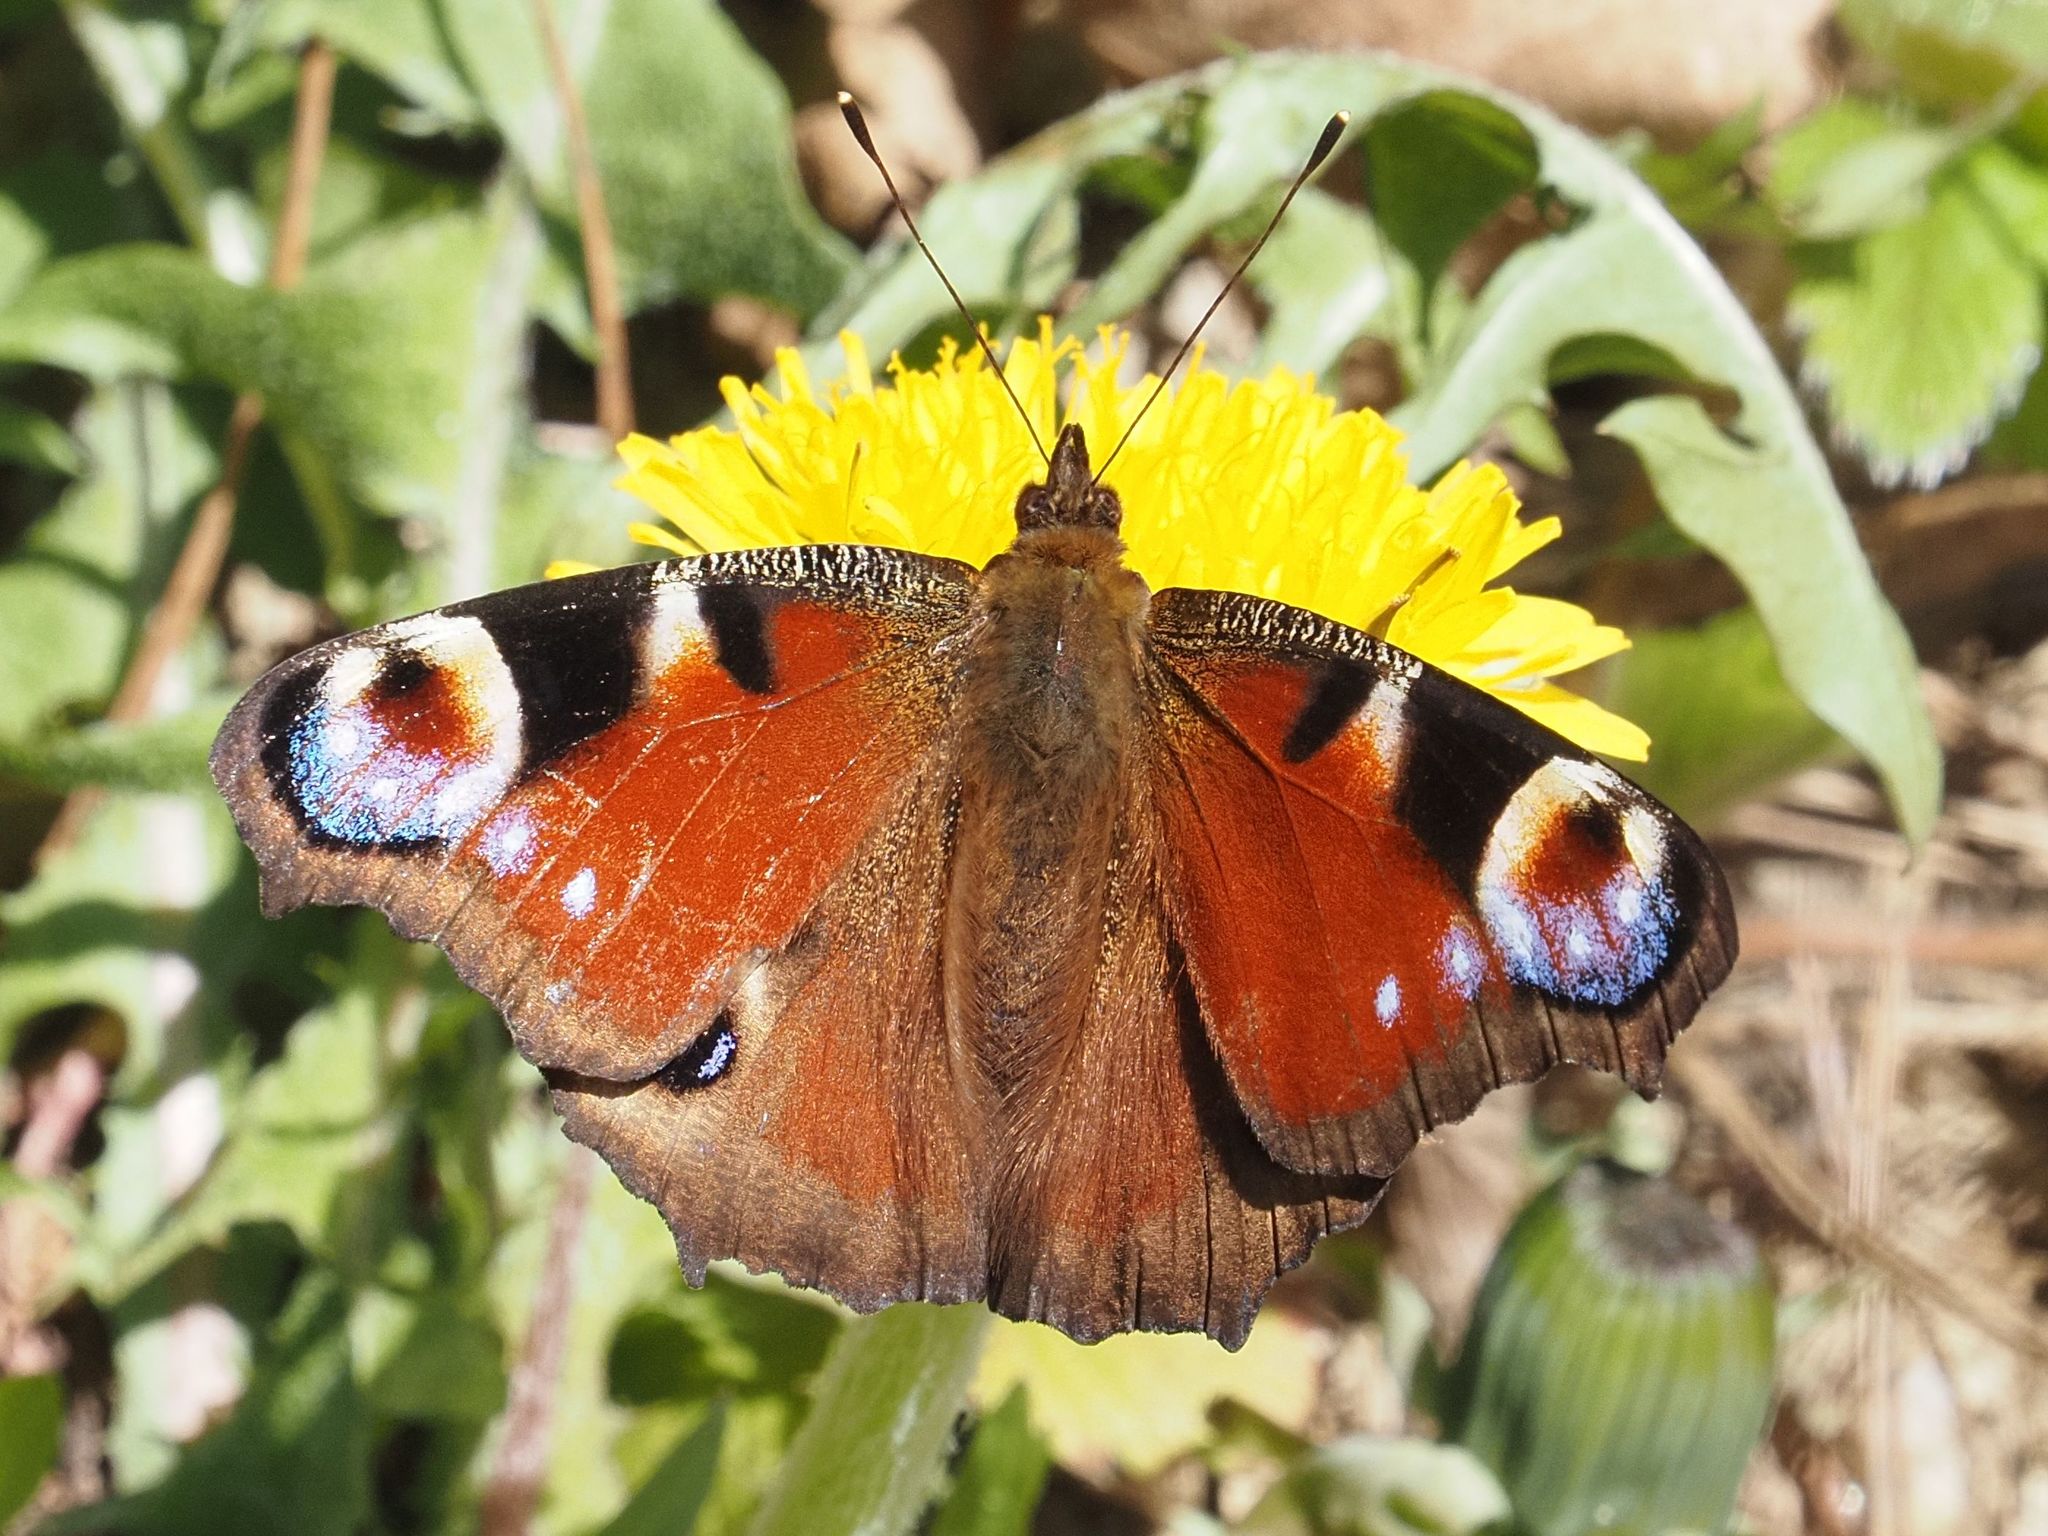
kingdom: Animalia
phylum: Arthropoda
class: Insecta
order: Lepidoptera
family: Nymphalidae
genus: Aglais
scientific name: Aglais io
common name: Peacock
